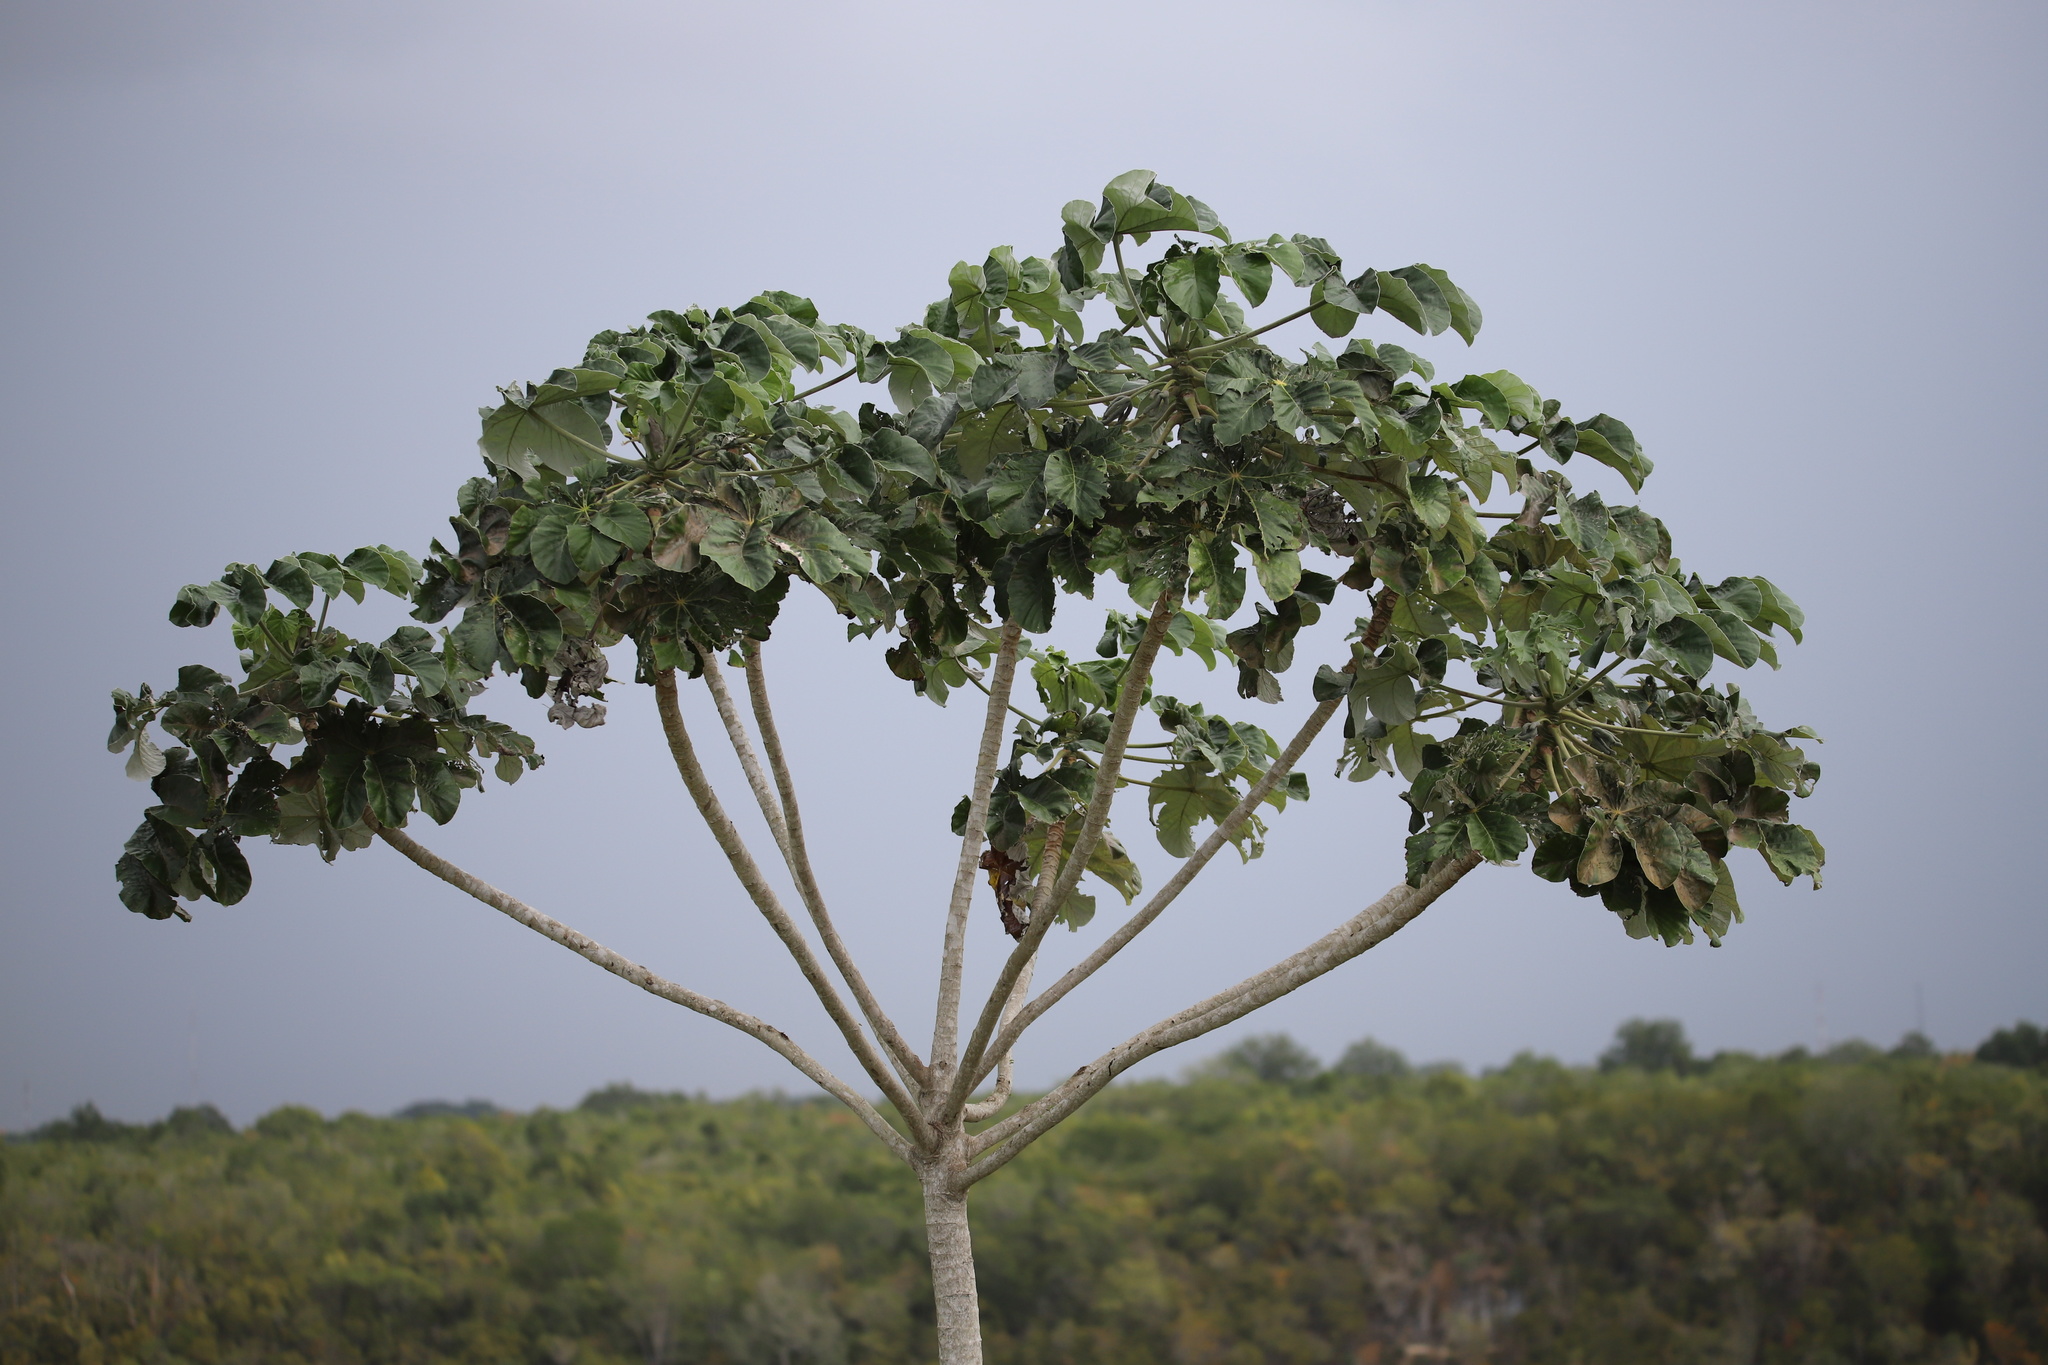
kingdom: Plantae
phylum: Tracheophyta
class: Magnoliopsida
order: Rosales
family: Urticaceae
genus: Cecropia
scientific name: Cecropia schreberiana
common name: Trumpet tree
